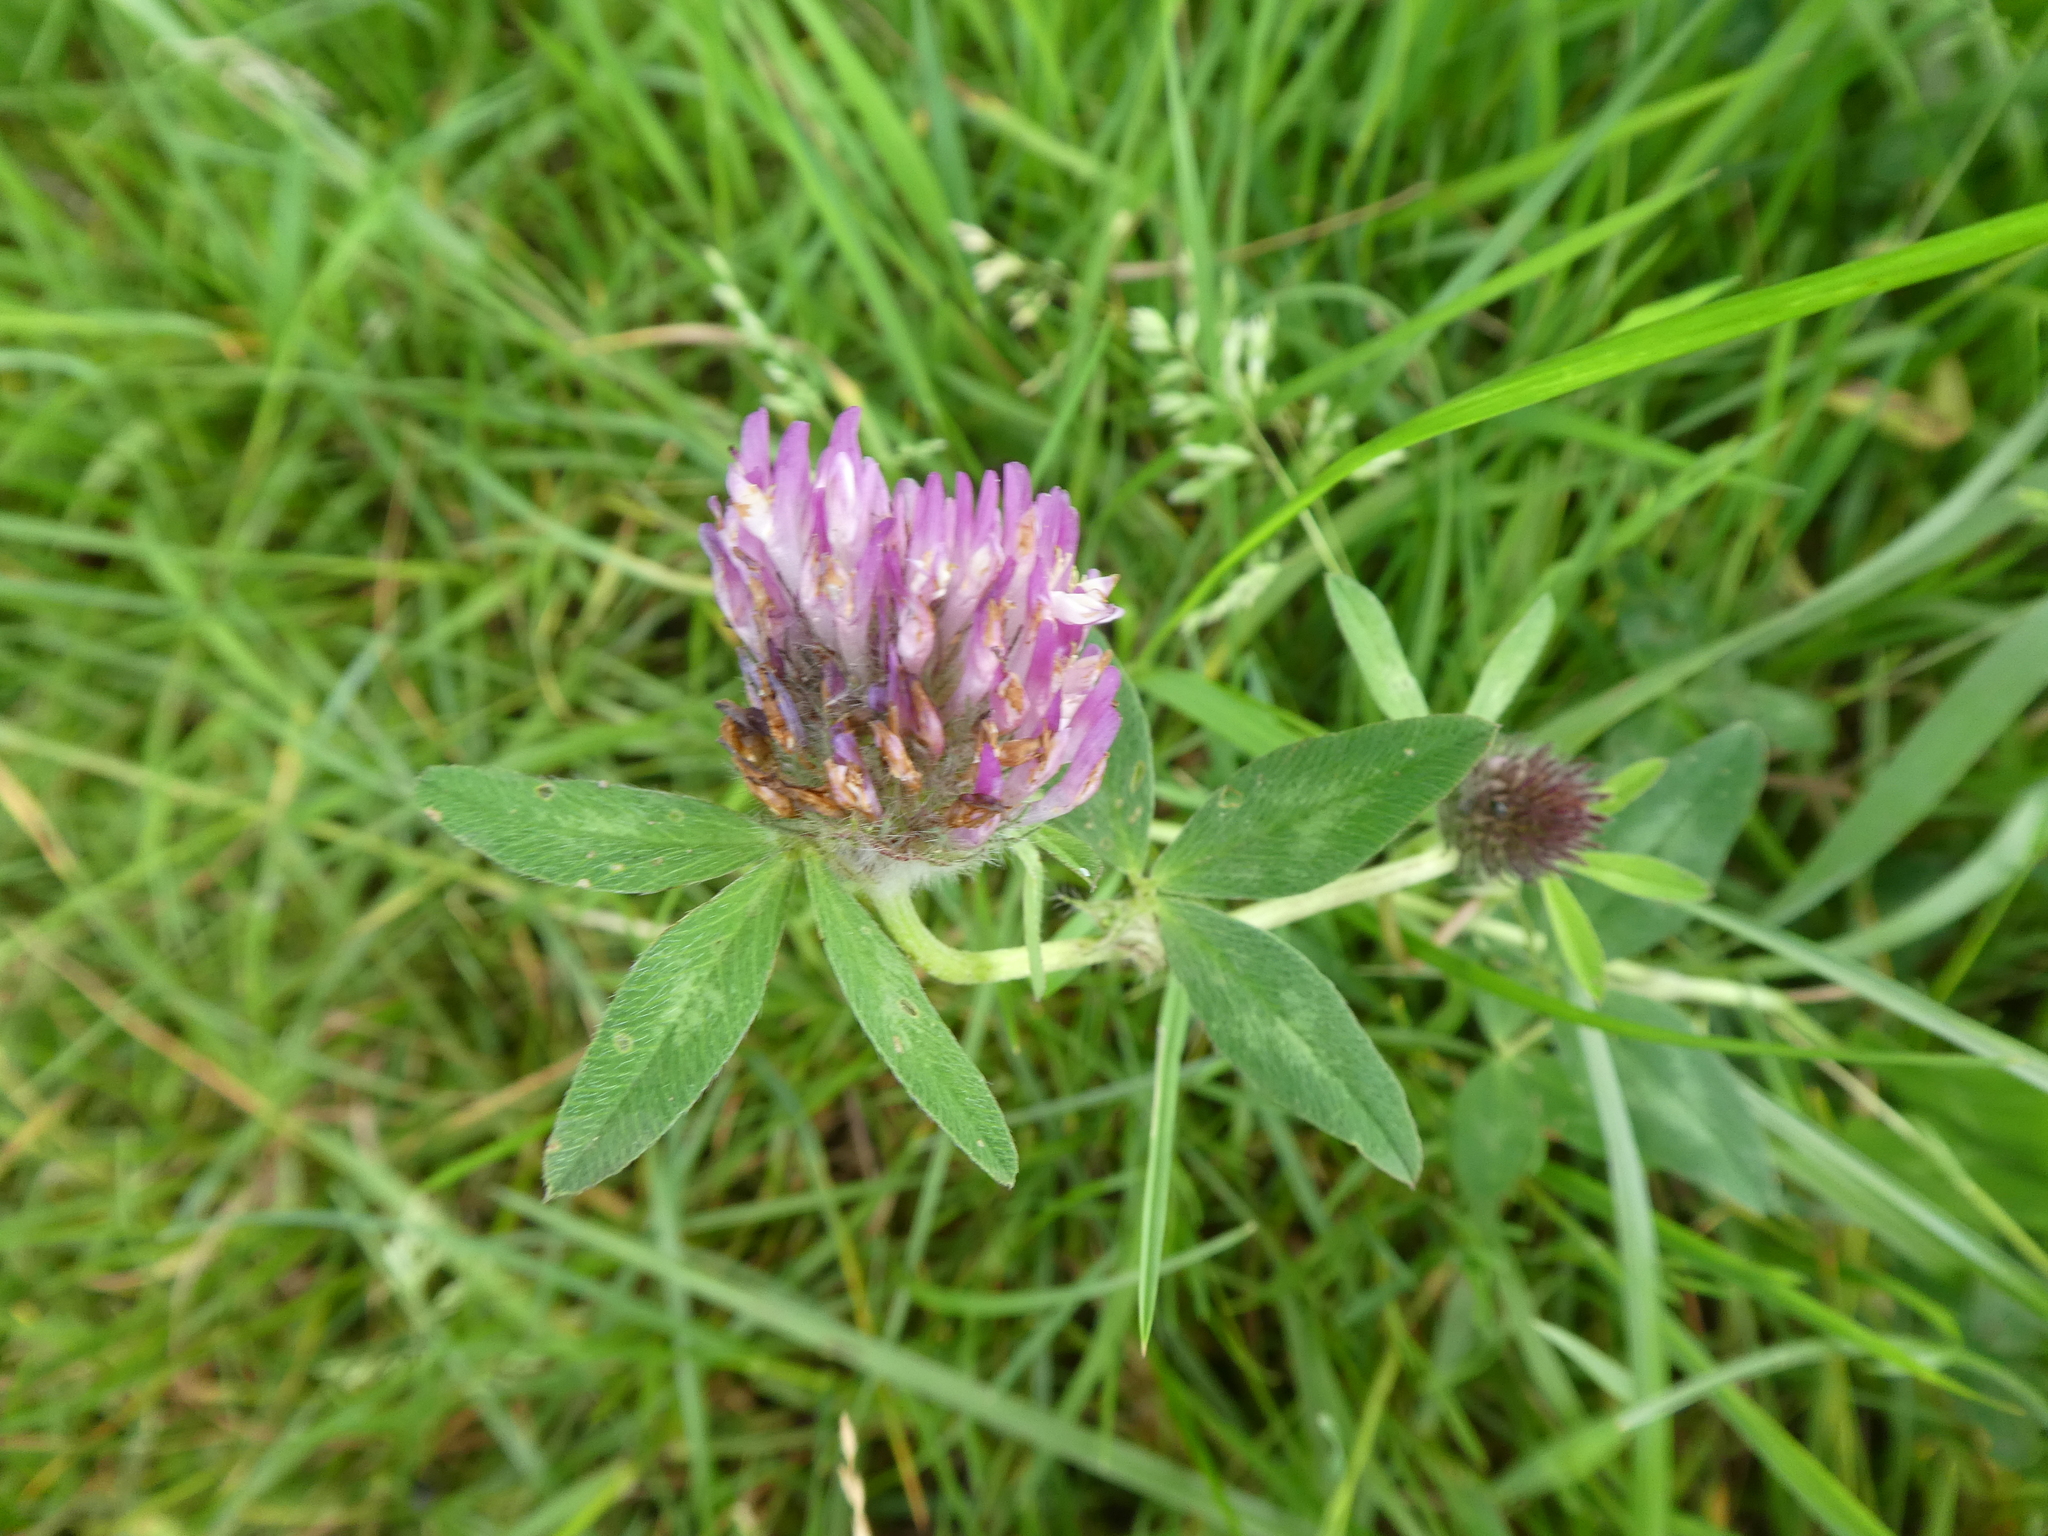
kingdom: Plantae
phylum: Tracheophyta
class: Magnoliopsida
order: Fabales
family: Fabaceae
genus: Trifolium
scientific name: Trifolium pratense
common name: Red clover
